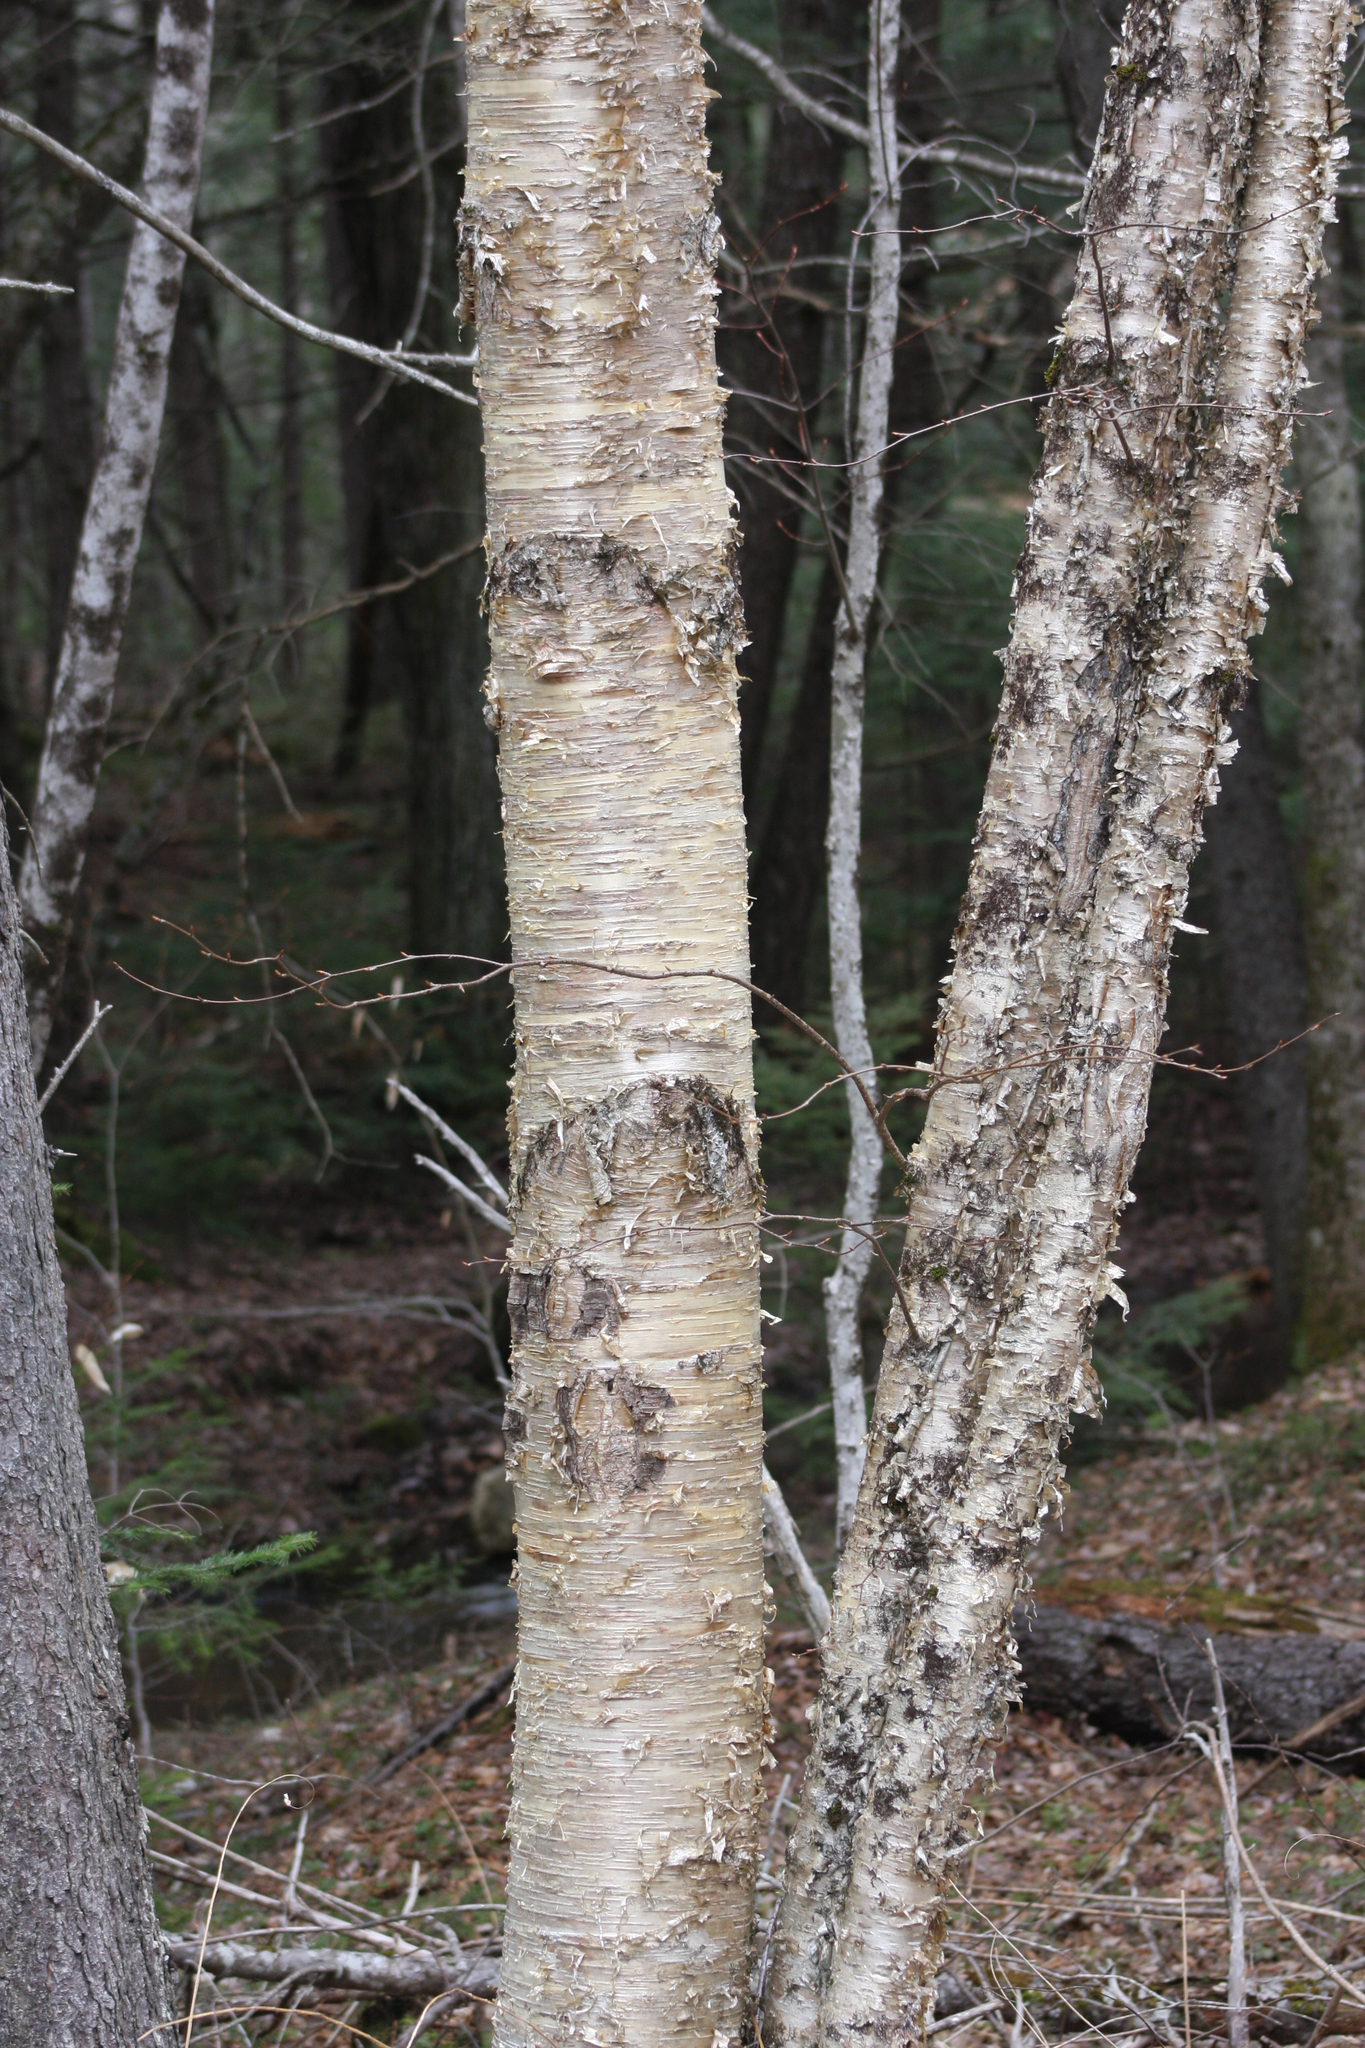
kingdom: Plantae
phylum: Tracheophyta
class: Magnoliopsida
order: Fagales
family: Betulaceae
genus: Betula
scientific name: Betula alleghaniensis
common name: Yellow birch
